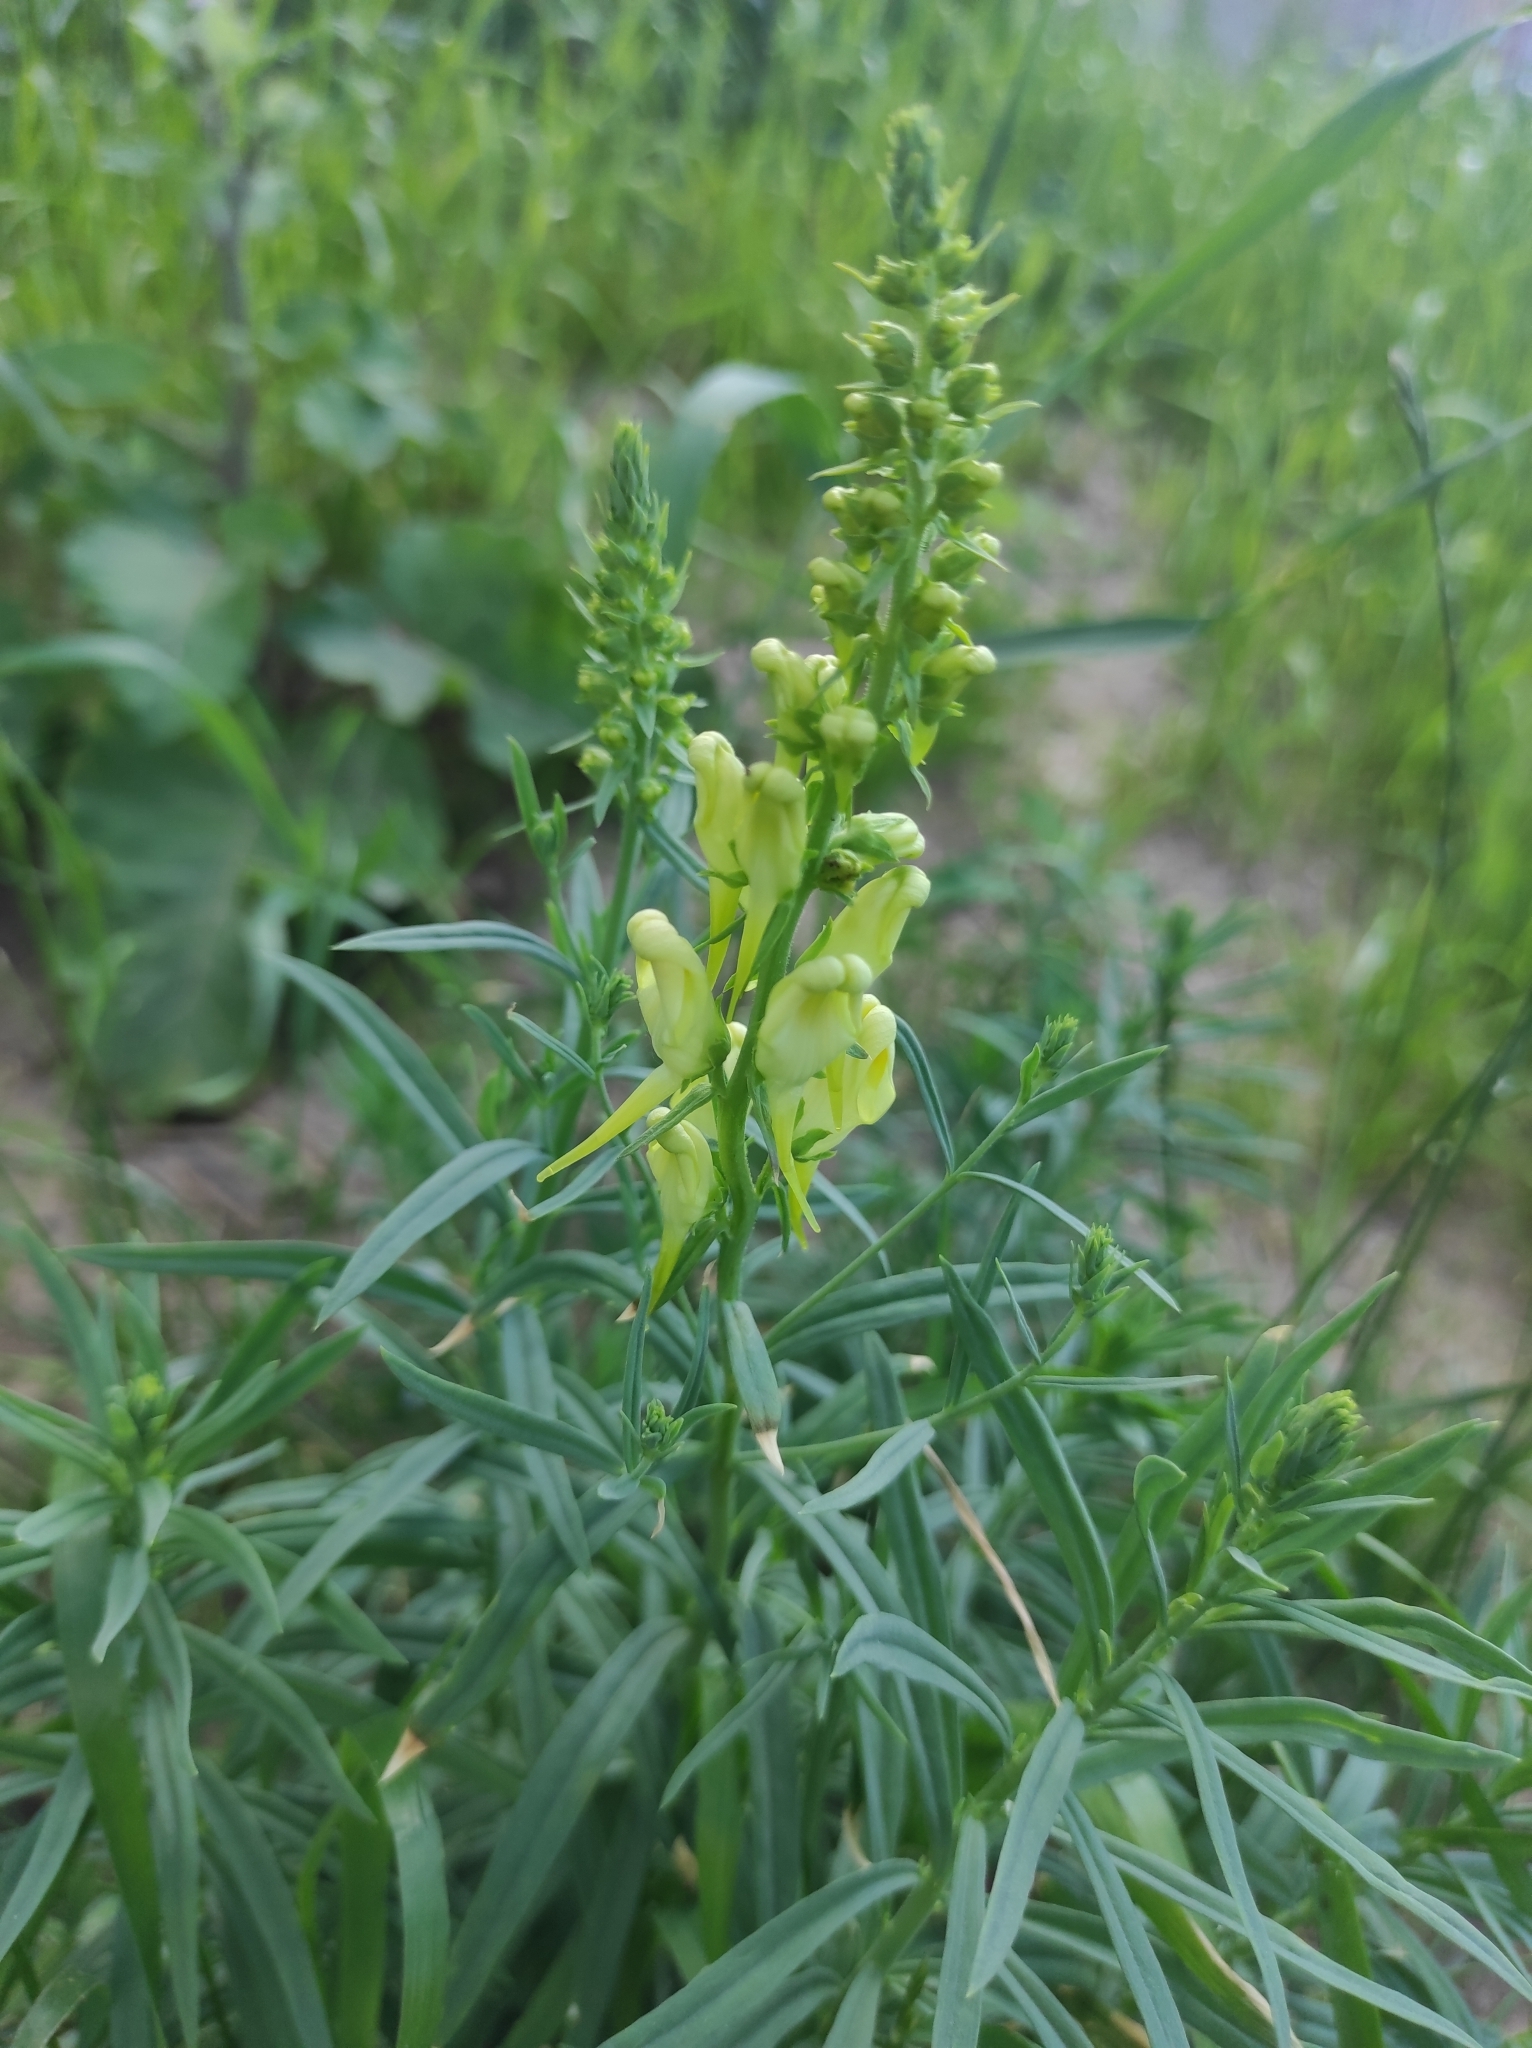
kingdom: Plantae
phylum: Tracheophyta
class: Magnoliopsida
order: Lamiales
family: Plantaginaceae
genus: Linaria
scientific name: Linaria vulgaris
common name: Butter and eggs
